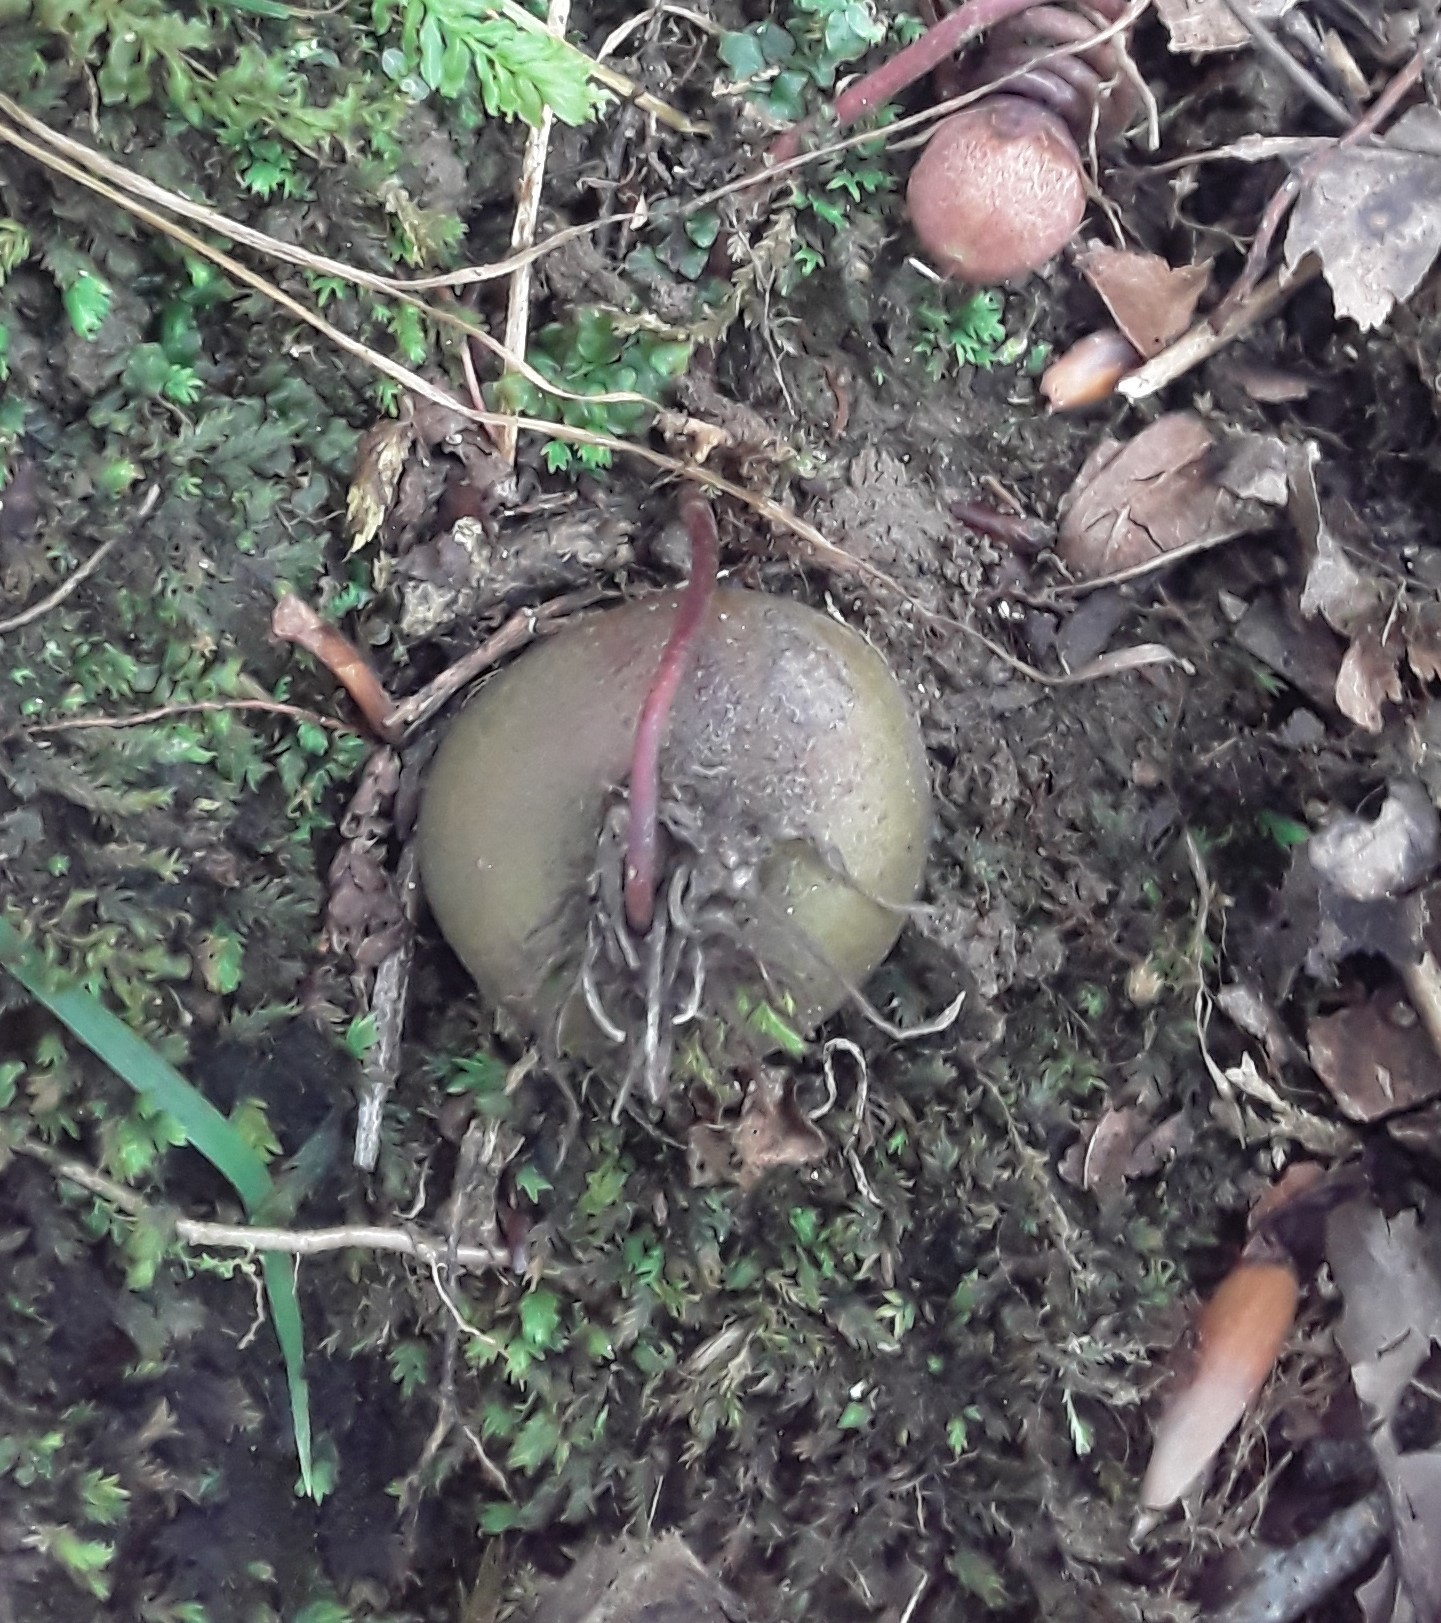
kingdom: Plantae
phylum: Tracheophyta
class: Magnoliopsida
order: Ericales
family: Primulaceae
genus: Cyclamen
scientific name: Cyclamen coum
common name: Eastern sowbread
